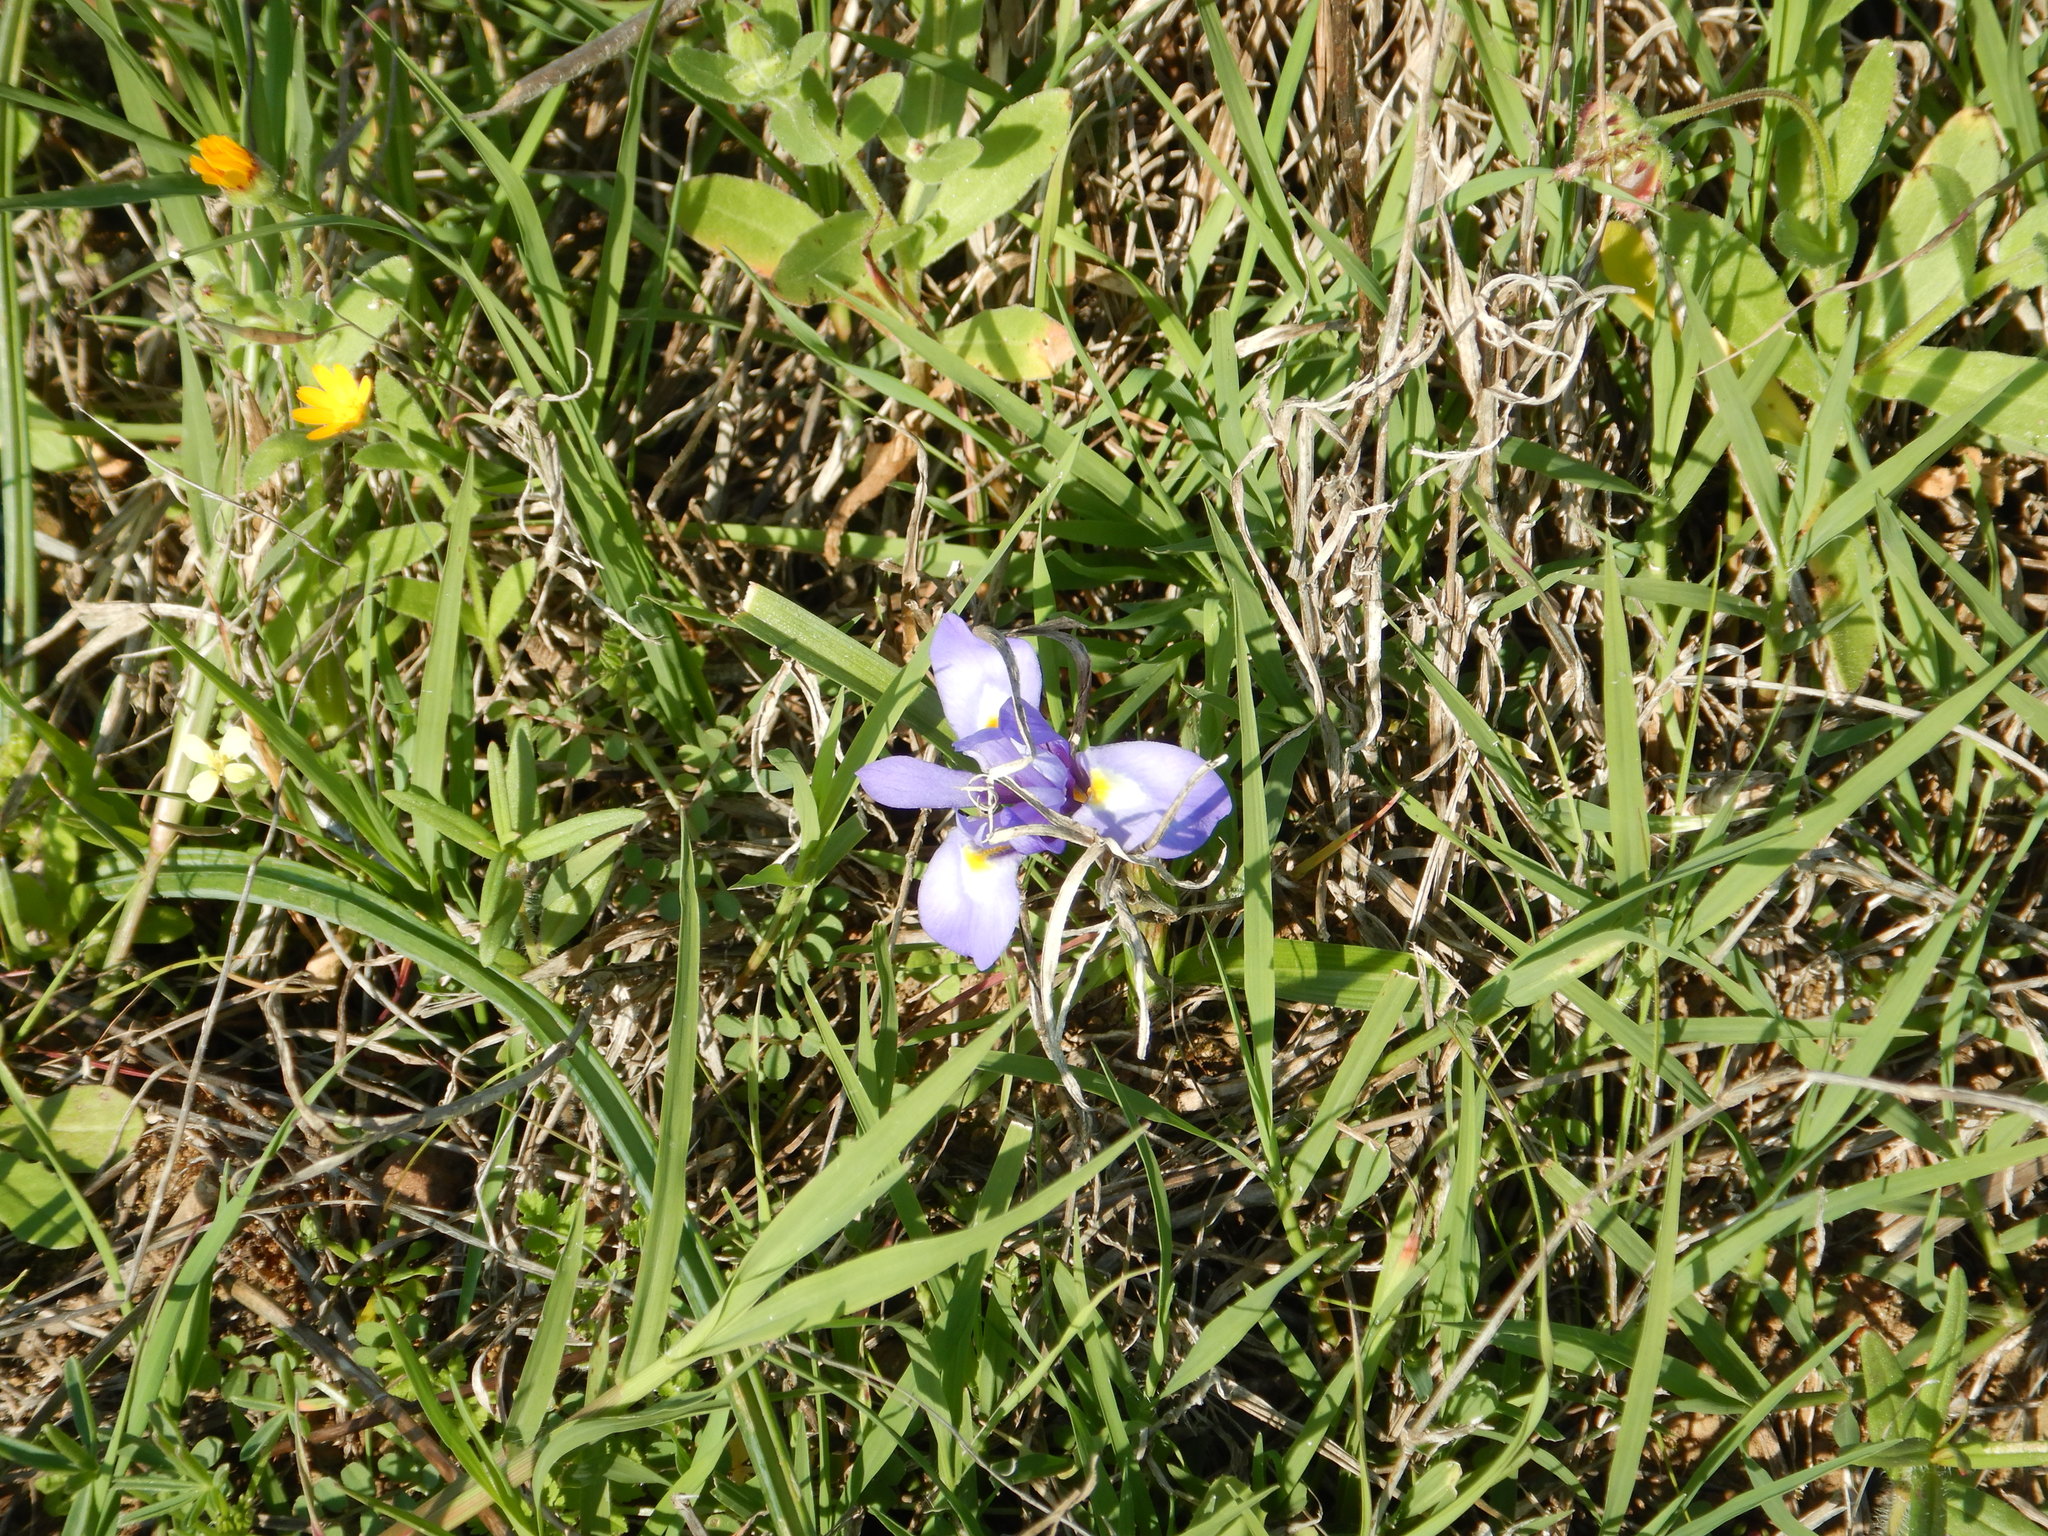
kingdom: Plantae
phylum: Tracheophyta
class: Liliopsida
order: Asparagales
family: Iridaceae
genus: Moraea
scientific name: Moraea sisyrinchium
